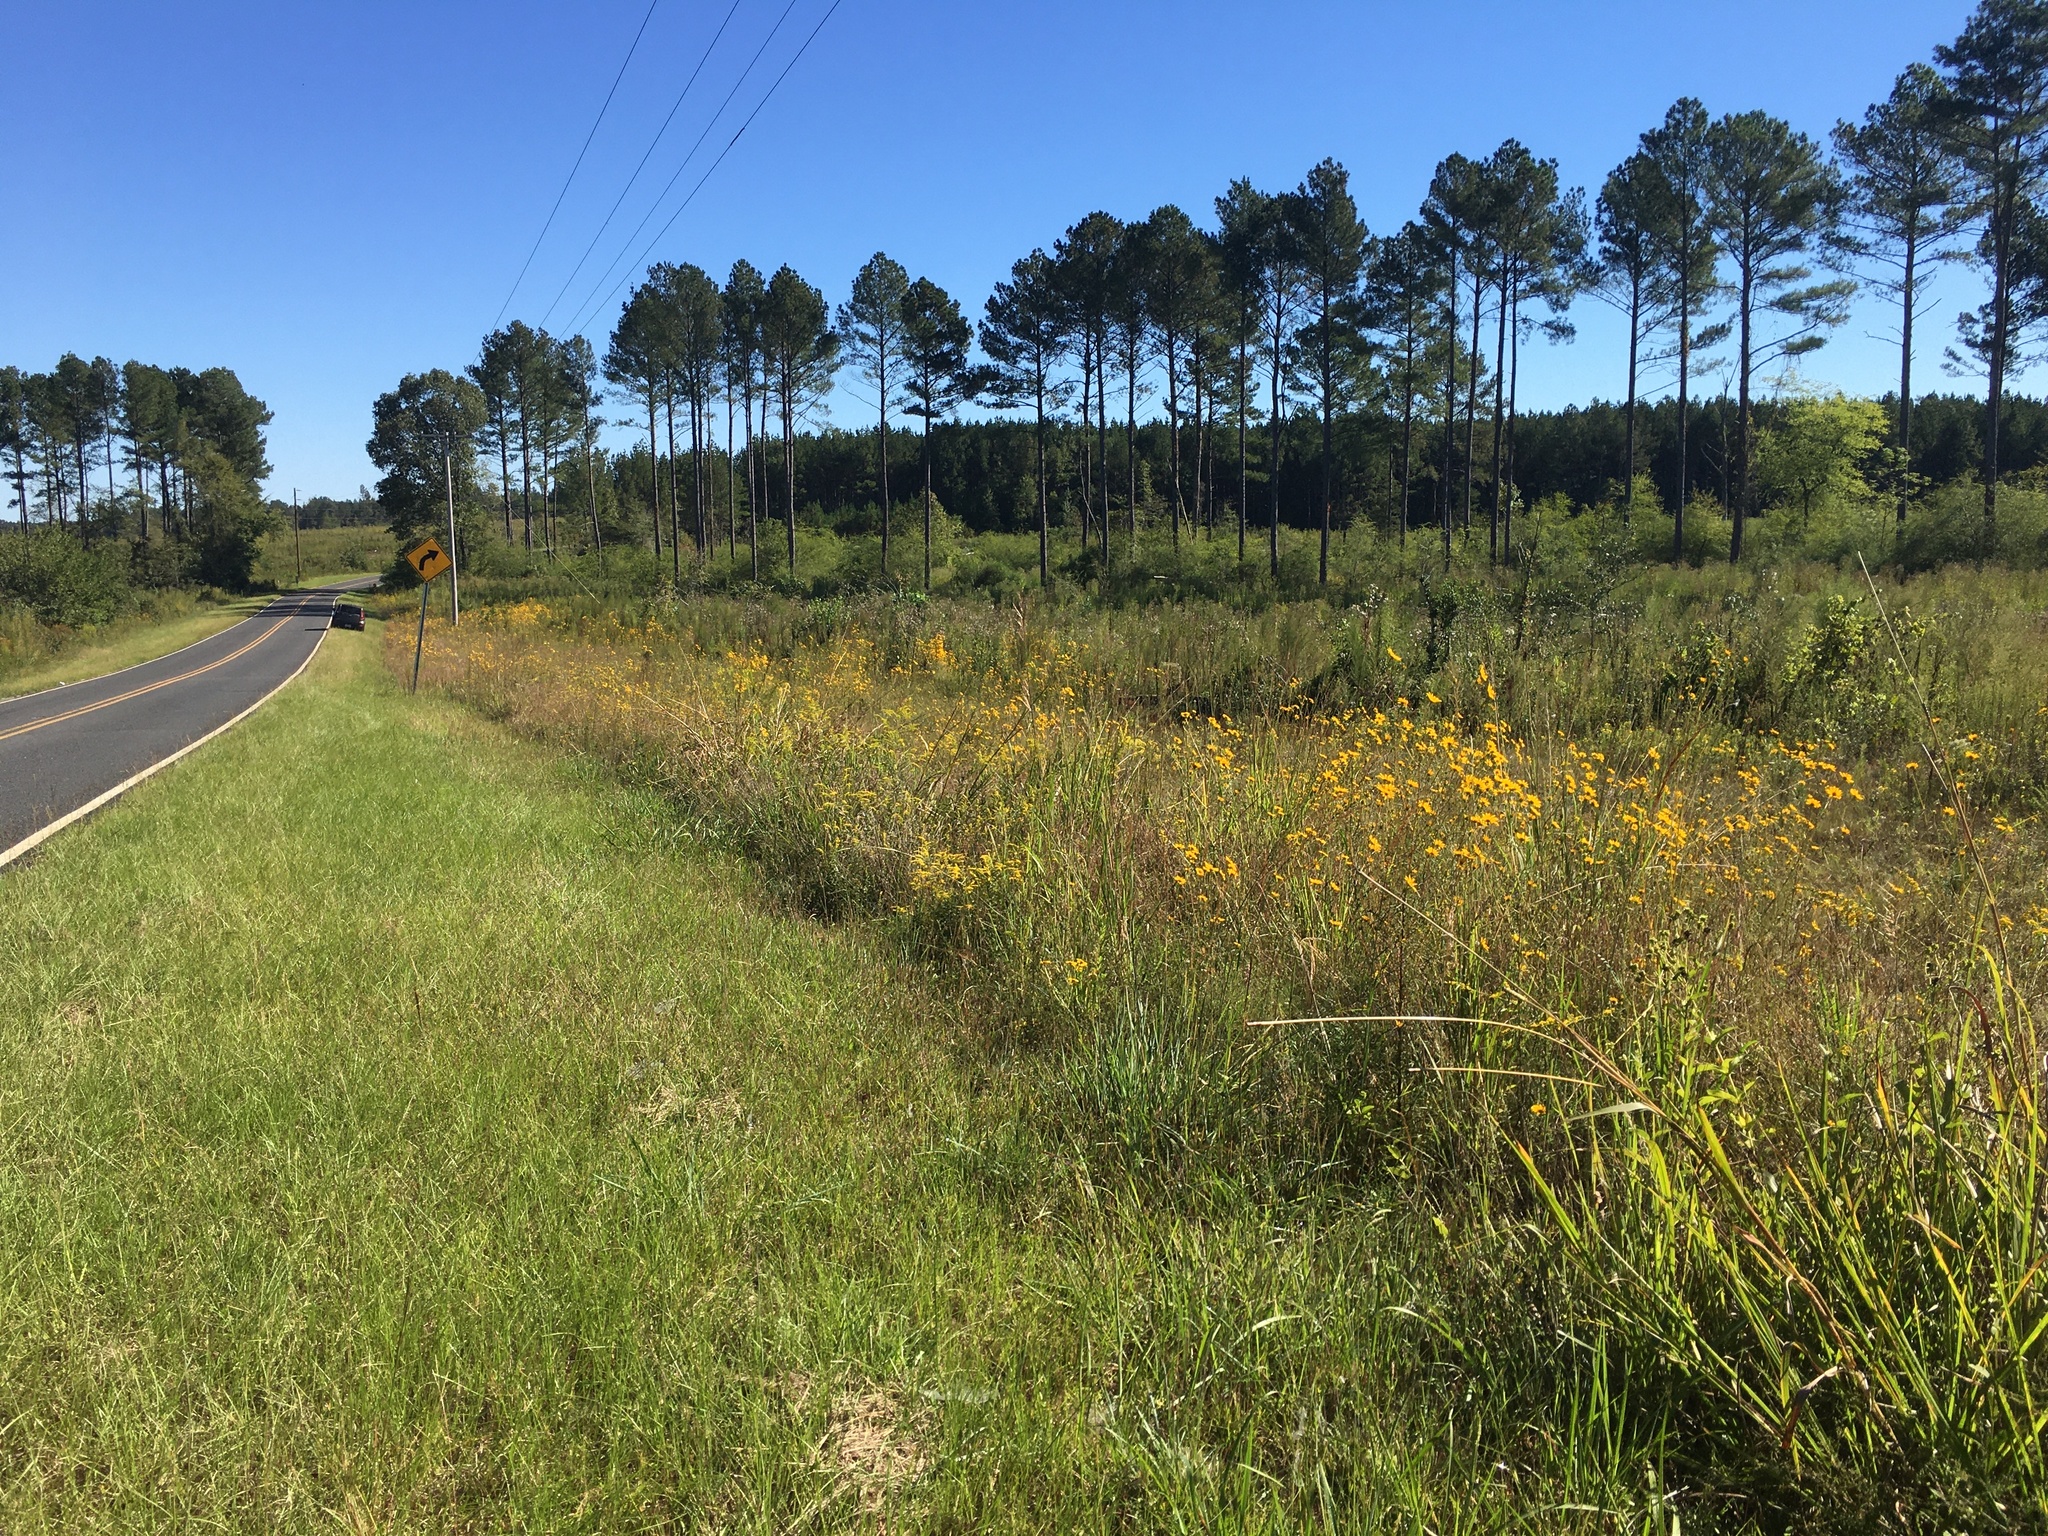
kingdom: Plantae
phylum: Tracheophyta
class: Magnoliopsida
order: Asterales
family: Asteraceae
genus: Helianthus
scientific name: Helianthus angustifolius
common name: Swamp sunflower
